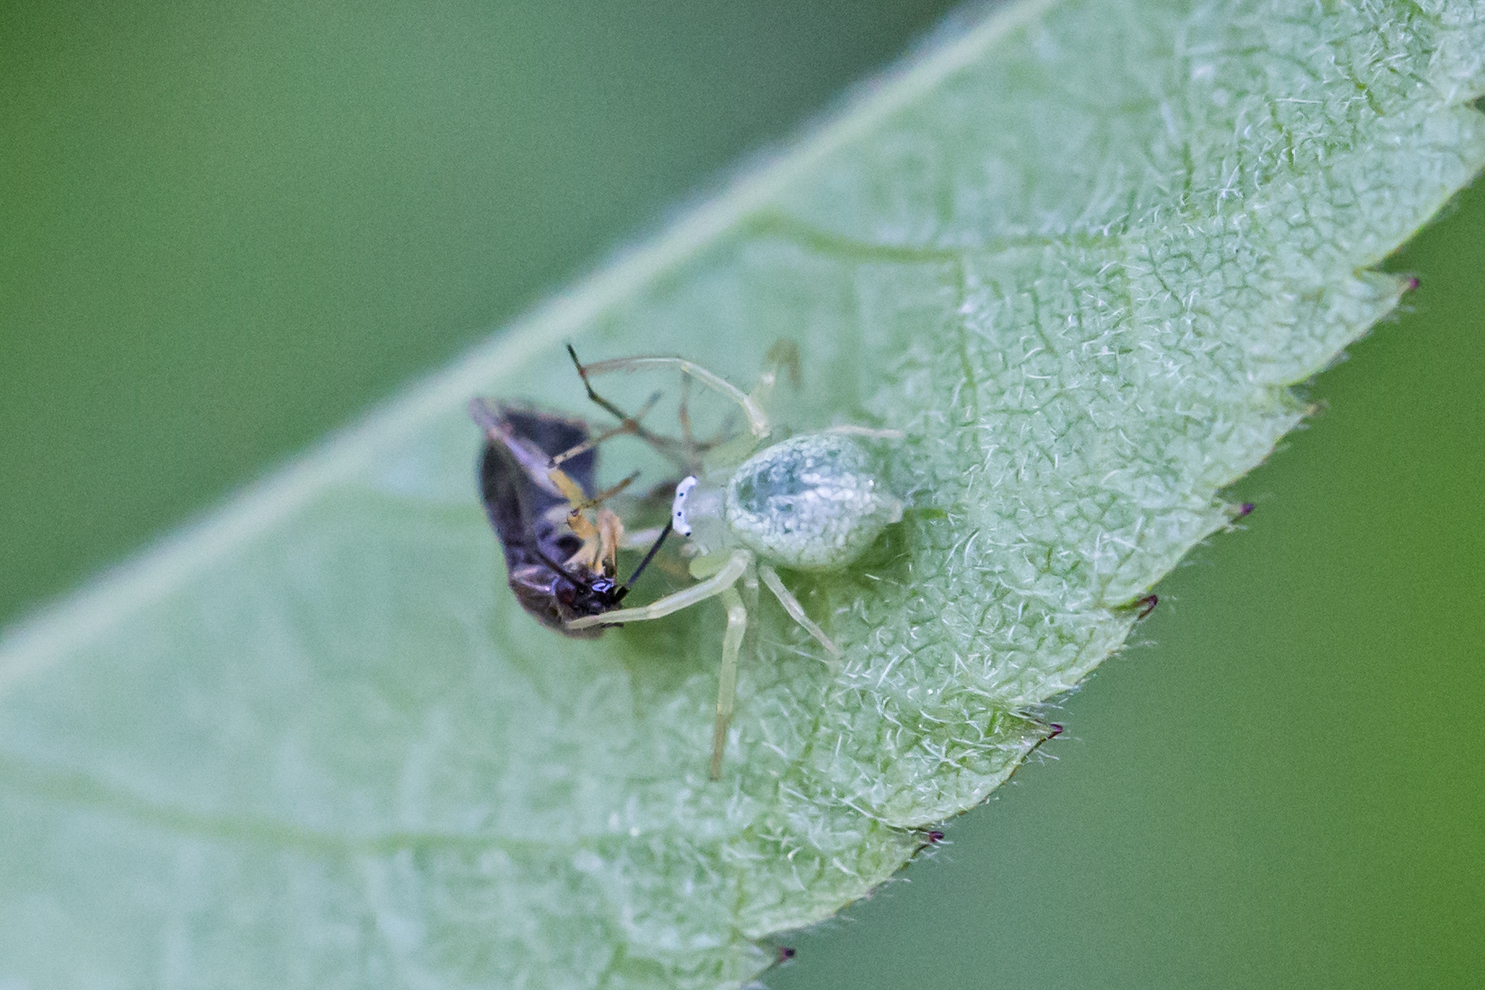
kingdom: Animalia
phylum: Arthropoda
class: Arachnida
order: Araneae
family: Thomisidae
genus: Misumessus
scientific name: Misumessus oblongus
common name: American green crab spider
